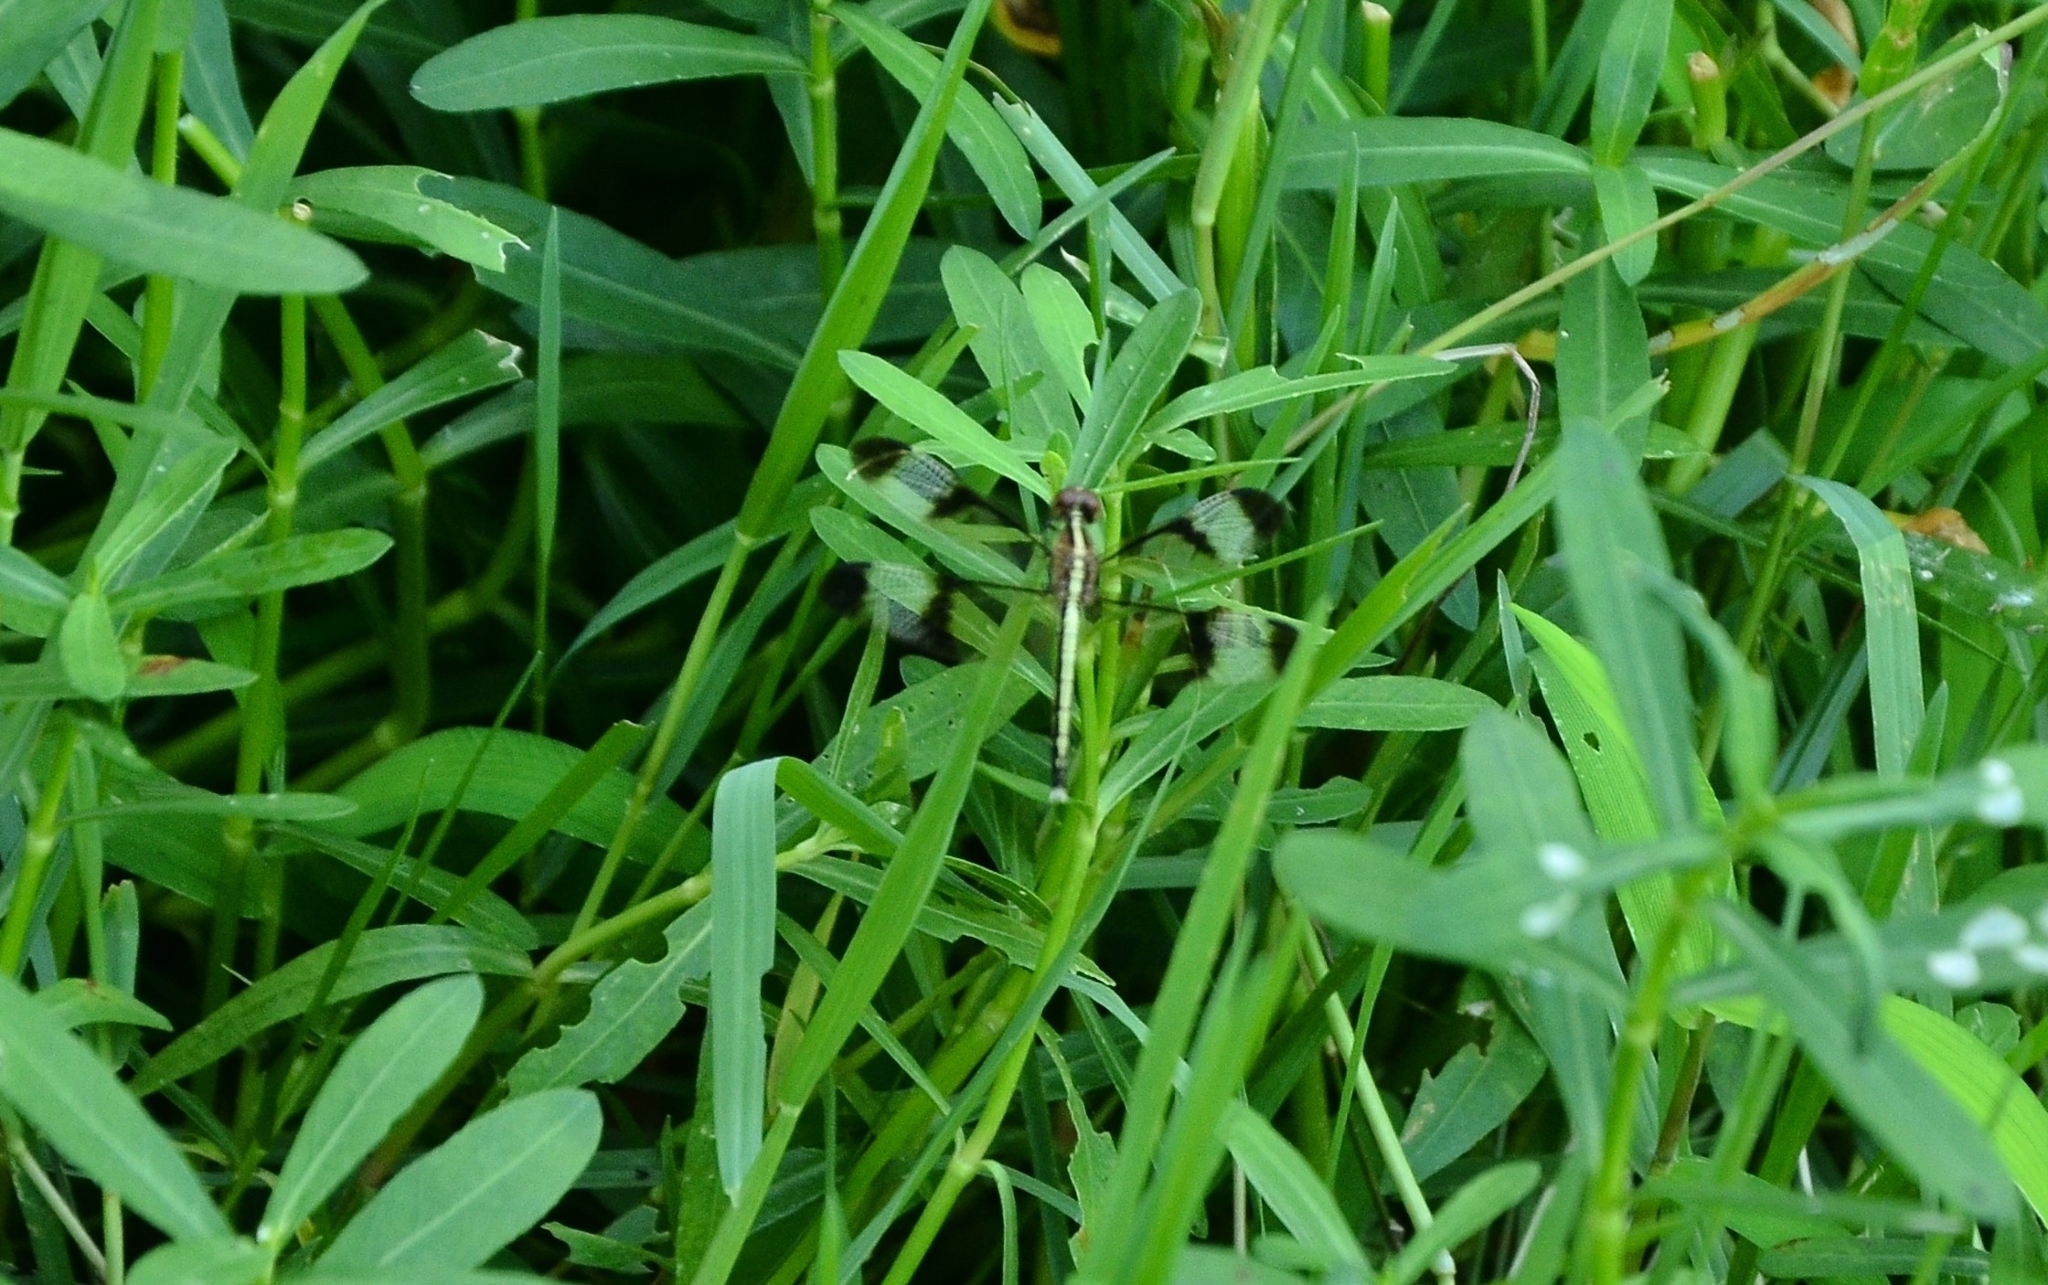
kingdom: Animalia
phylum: Arthropoda
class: Insecta
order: Odonata
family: Libellulidae
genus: Neurothemis
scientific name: Neurothemis tullia
